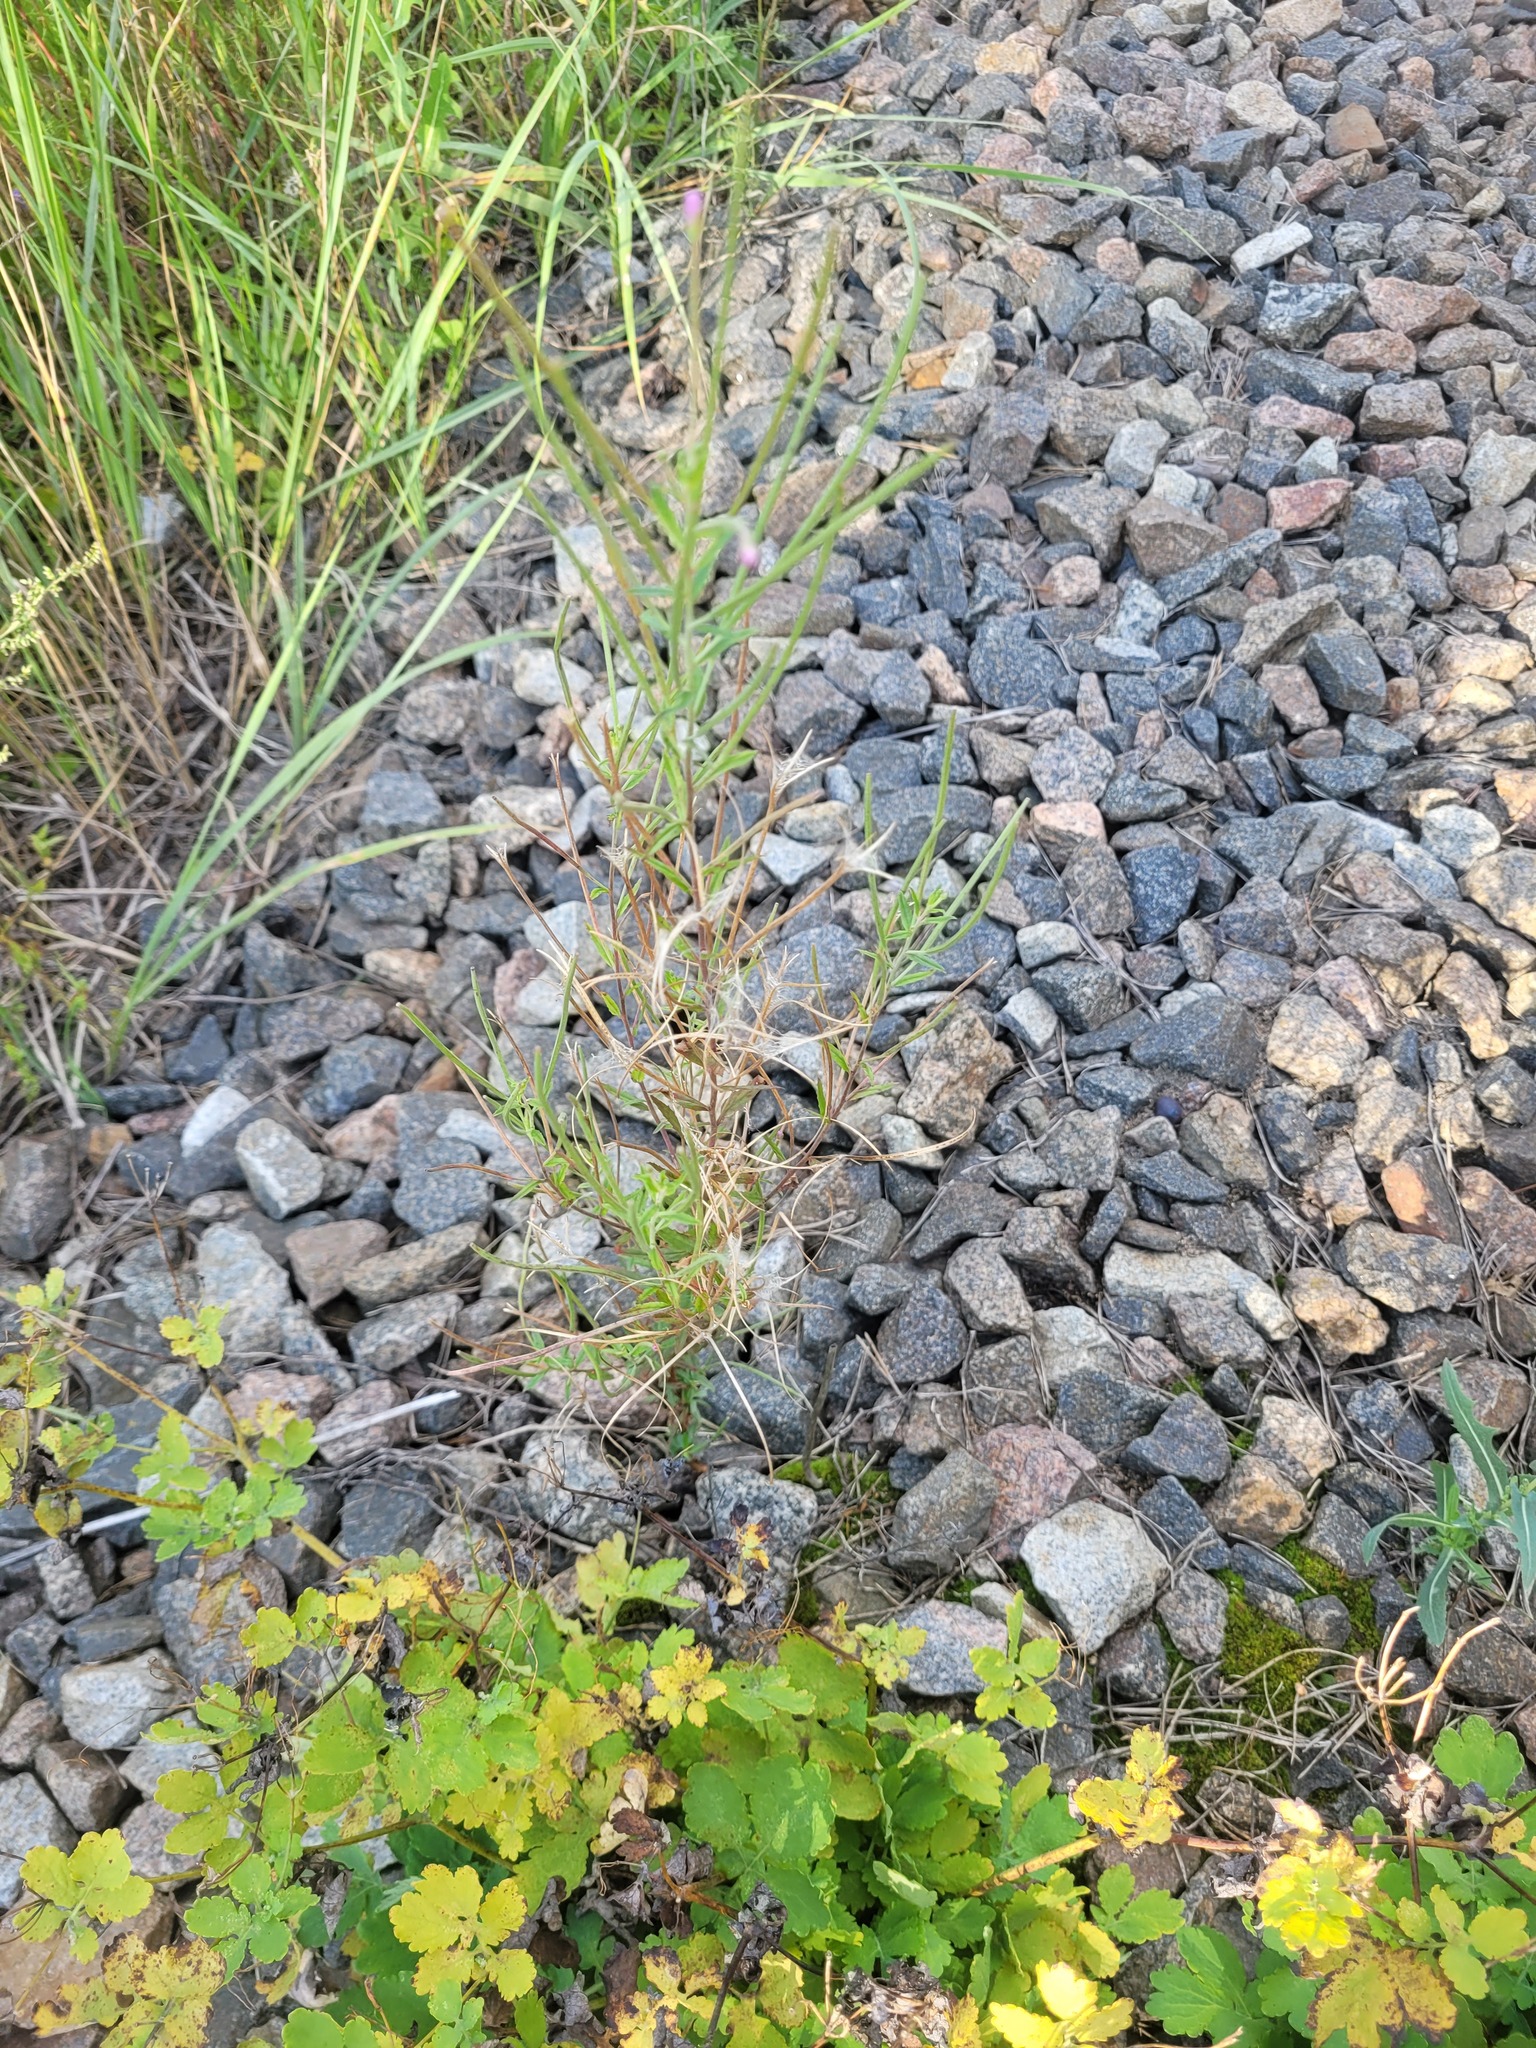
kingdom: Plantae
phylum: Tracheophyta
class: Magnoliopsida
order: Myrtales
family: Onagraceae
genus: Epilobium
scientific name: Epilobium lamyi
